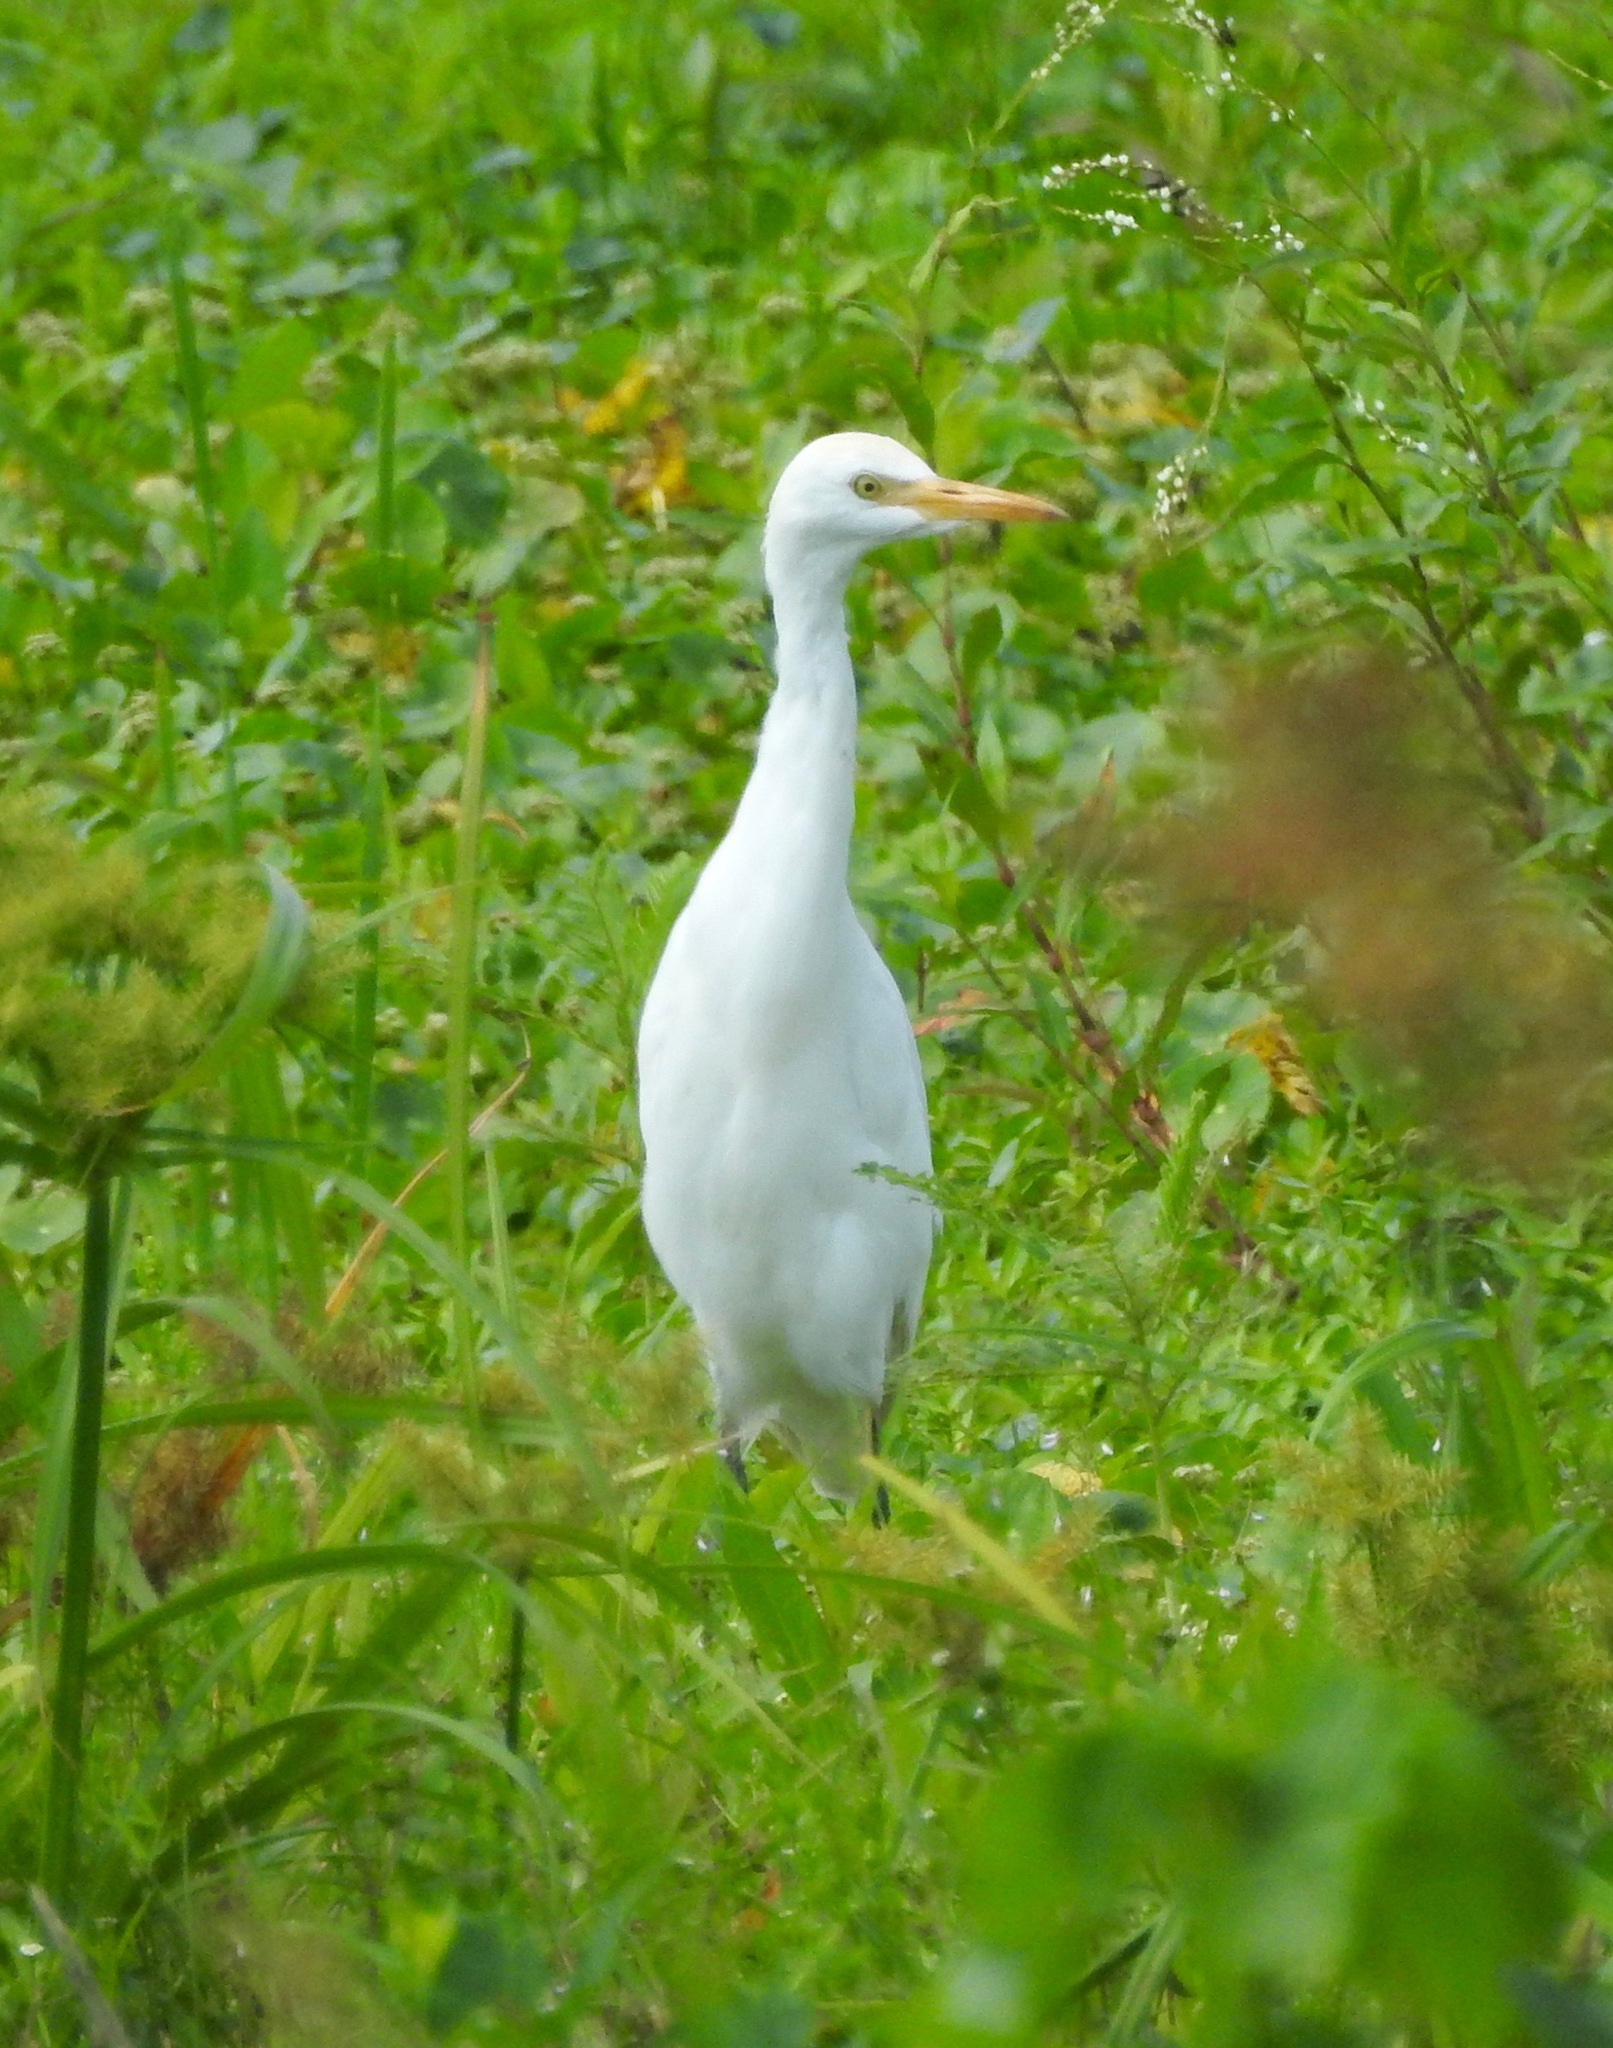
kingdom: Animalia
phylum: Chordata
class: Aves
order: Pelecaniformes
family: Ardeidae
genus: Bubulcus
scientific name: Bubulcus ibis
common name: Cattle egret
